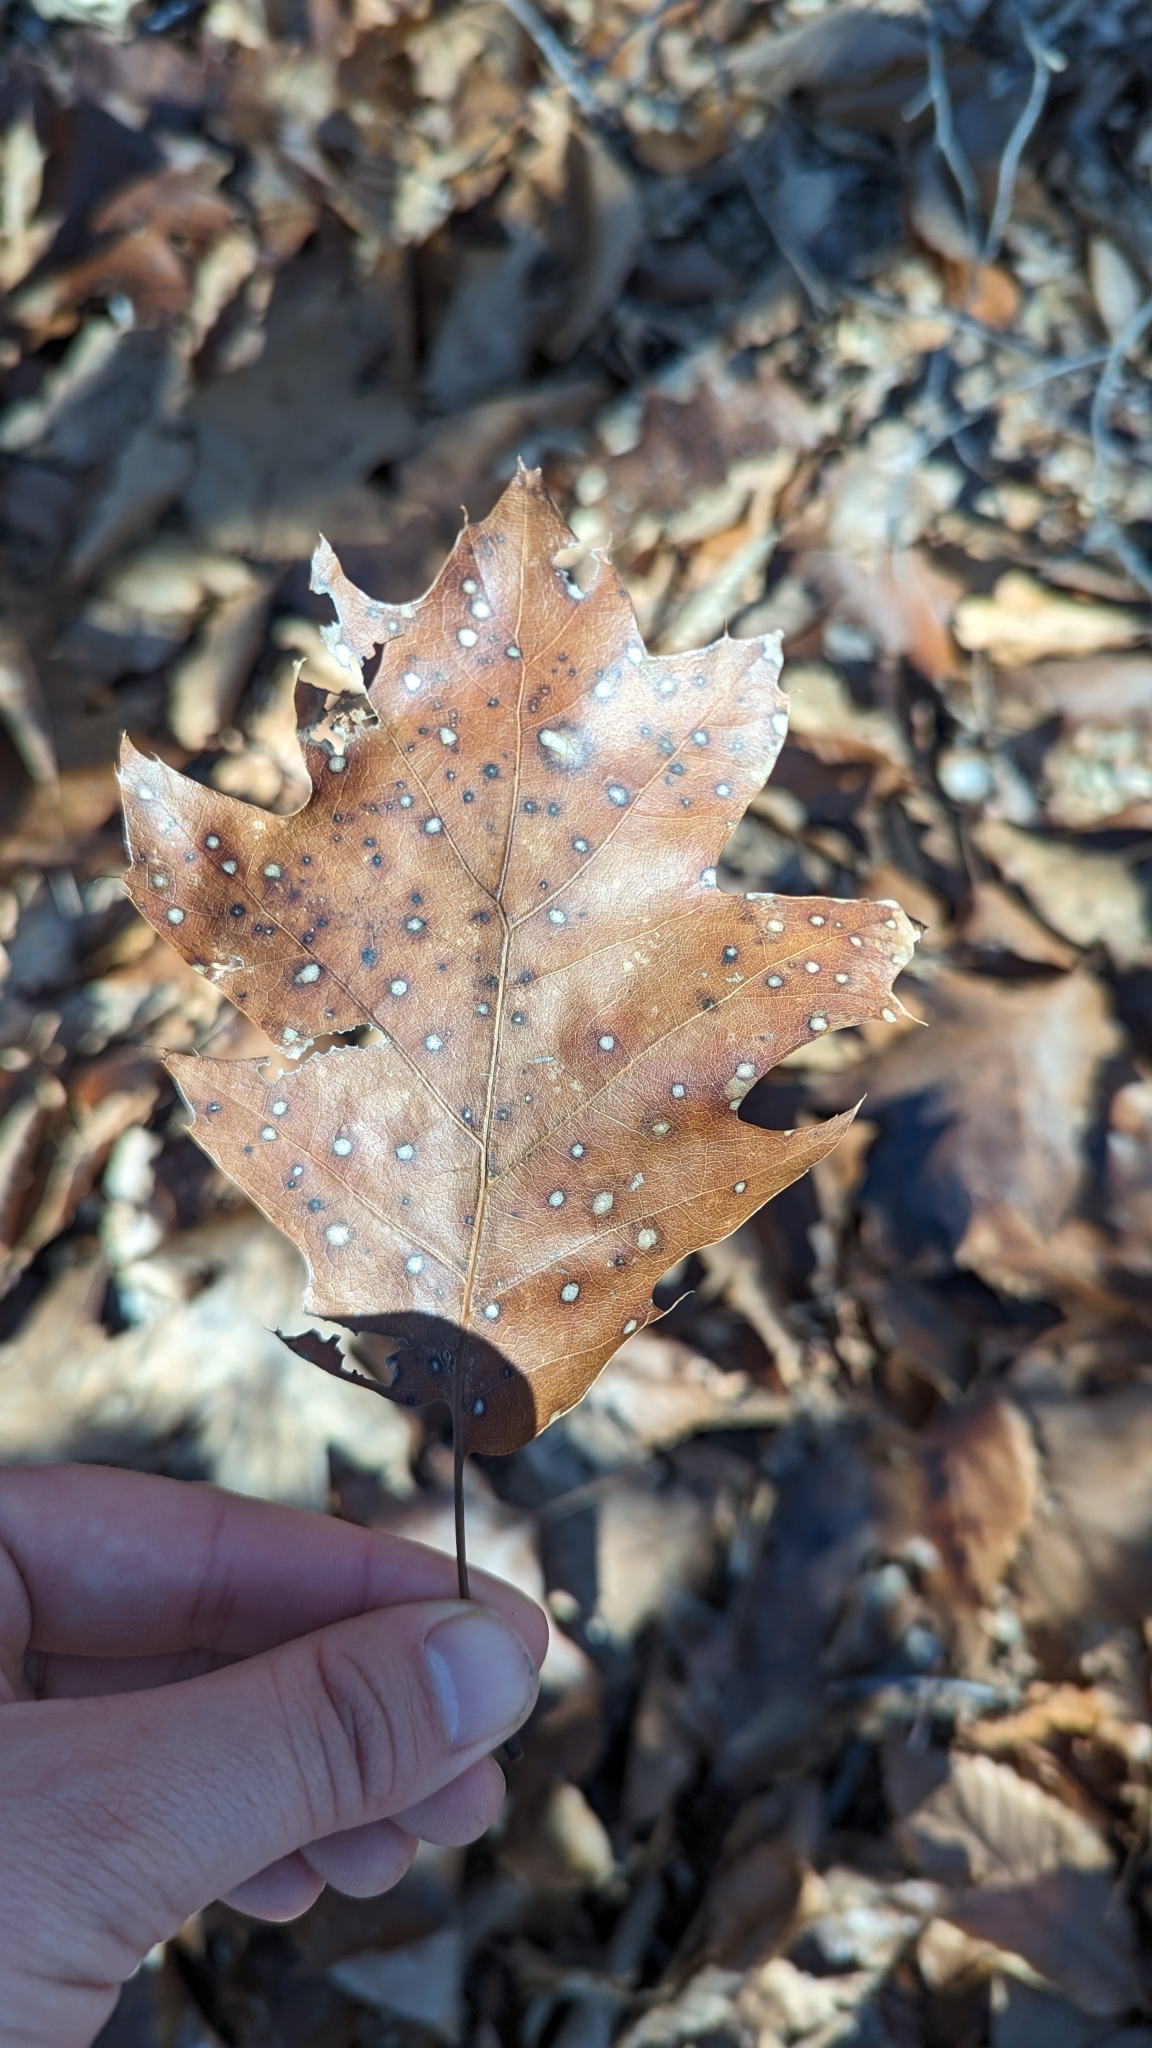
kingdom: Plantae
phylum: Tracheophyta
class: Magnoliopsida
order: Fagales
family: Fagaceae
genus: Quercus
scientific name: Quercus rubra
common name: Red oak
